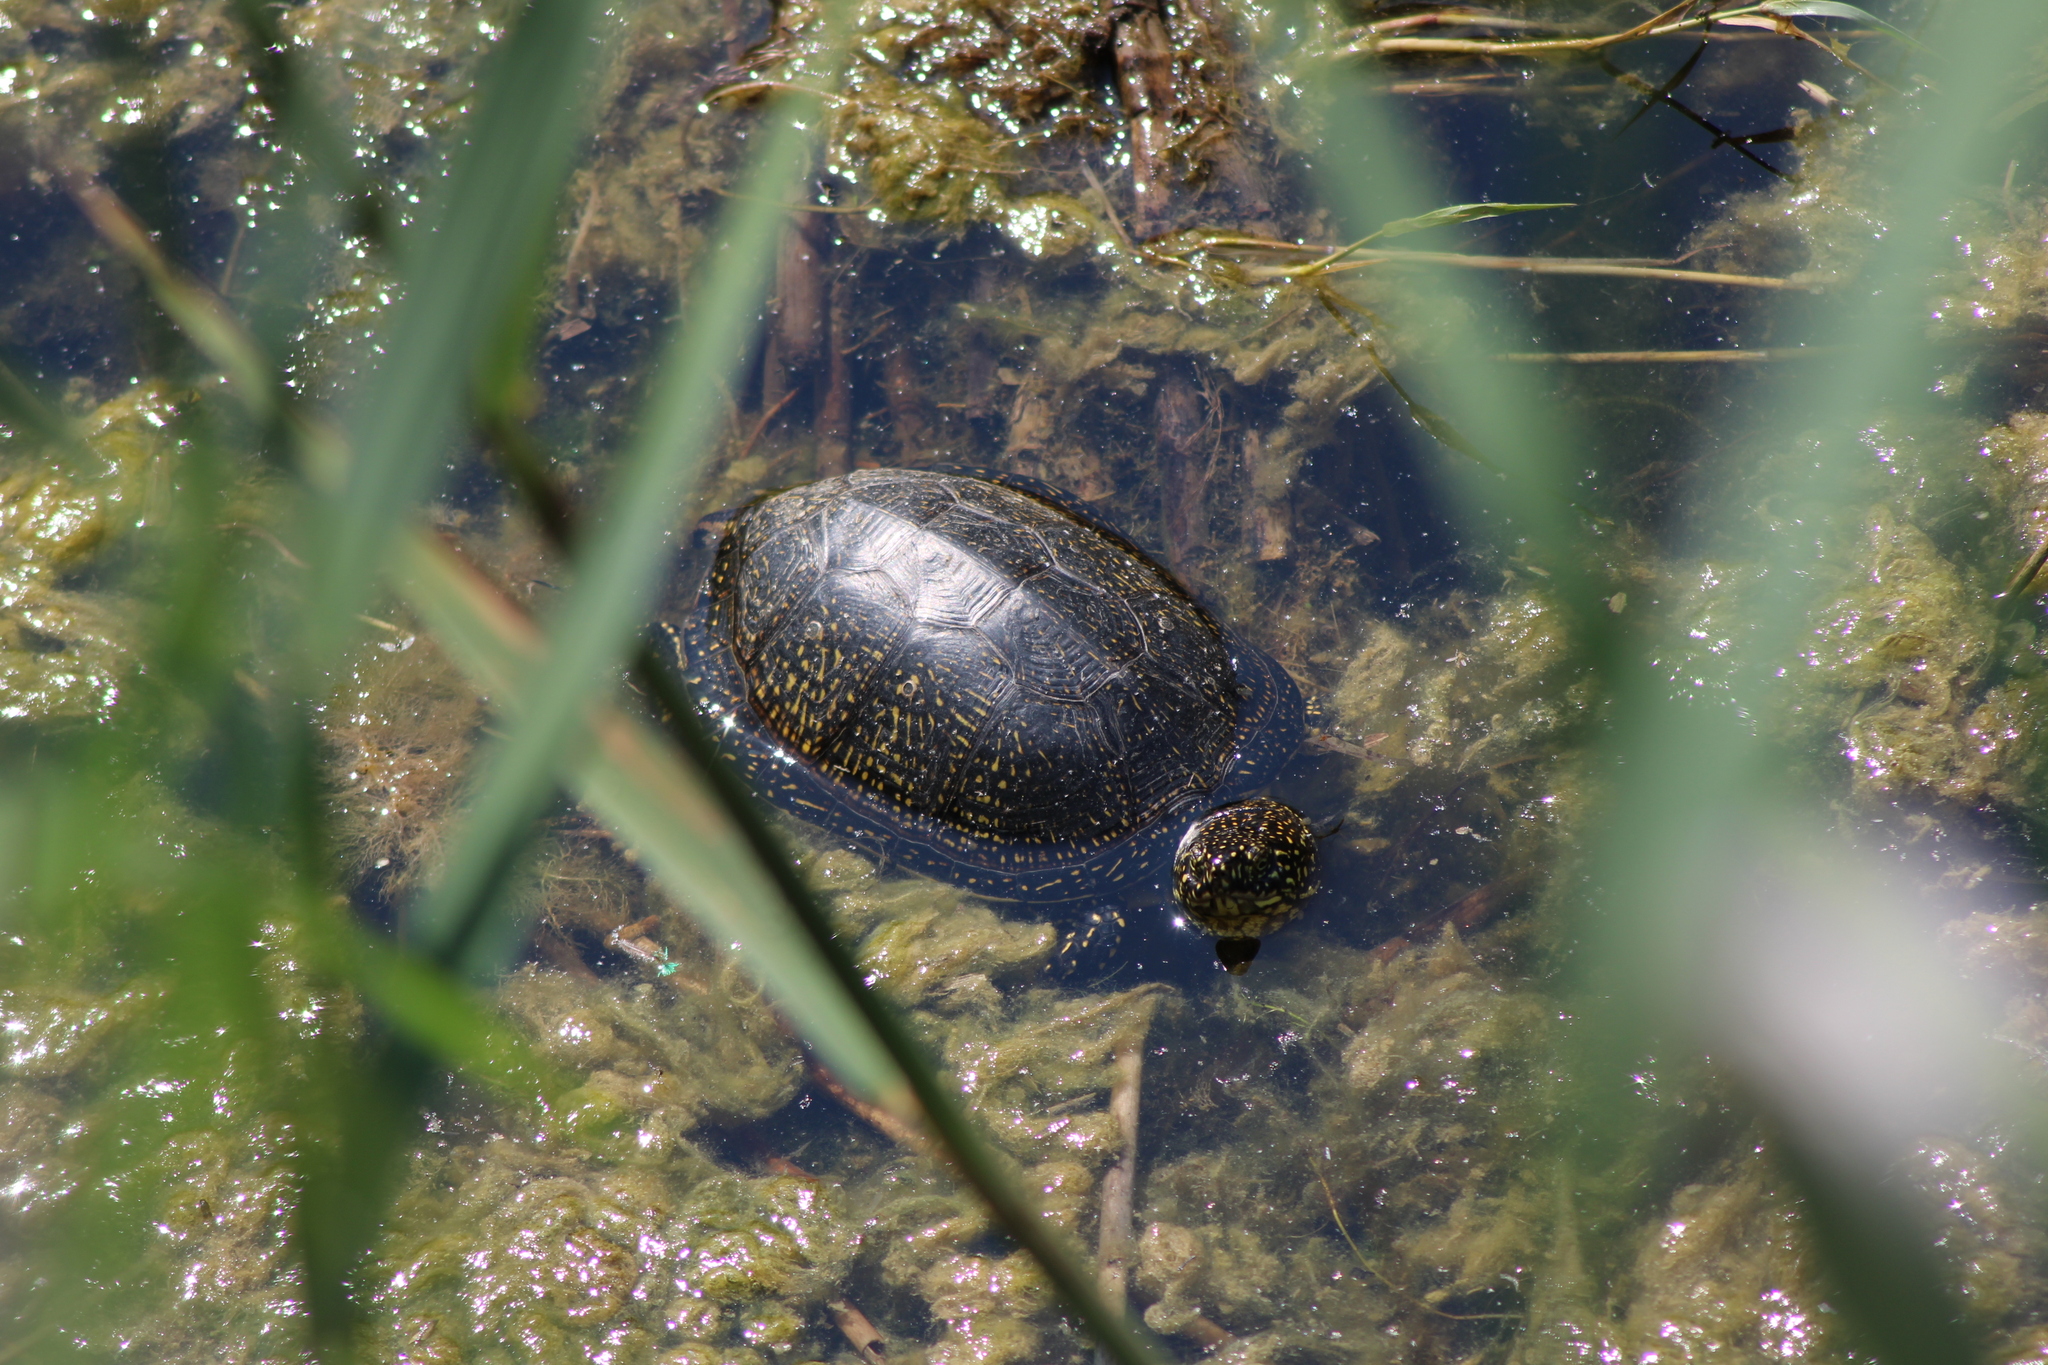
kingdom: Animalia
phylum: Chordata
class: Testudines
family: Emydidae
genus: Emys
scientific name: Emys orbicularis
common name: European pond turtle
